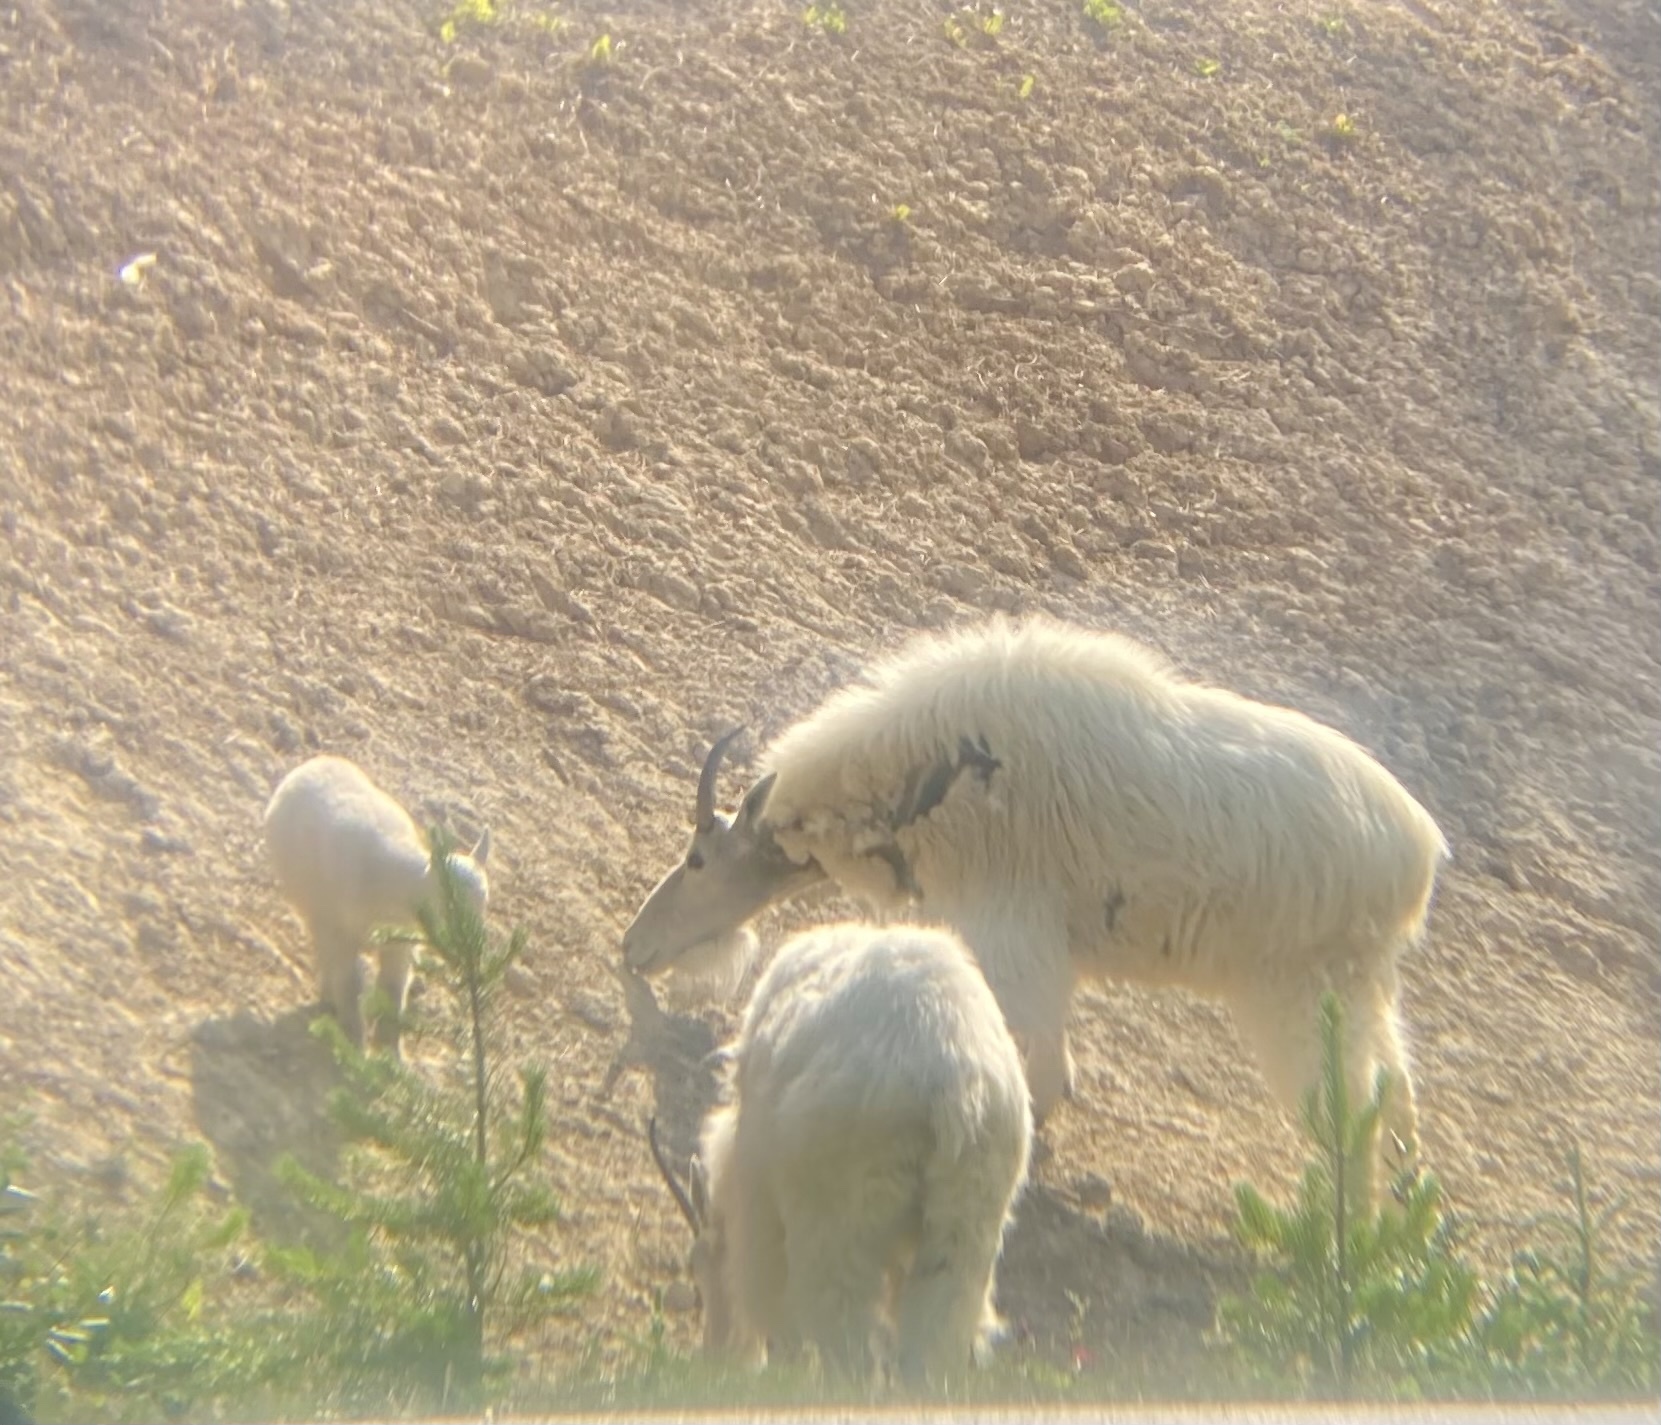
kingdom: Animalia
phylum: Chordata
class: Mammalia
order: Artiodactyla
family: Bovidae
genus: Oreamnos
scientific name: Oreamnos americanus
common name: Mountain goat
